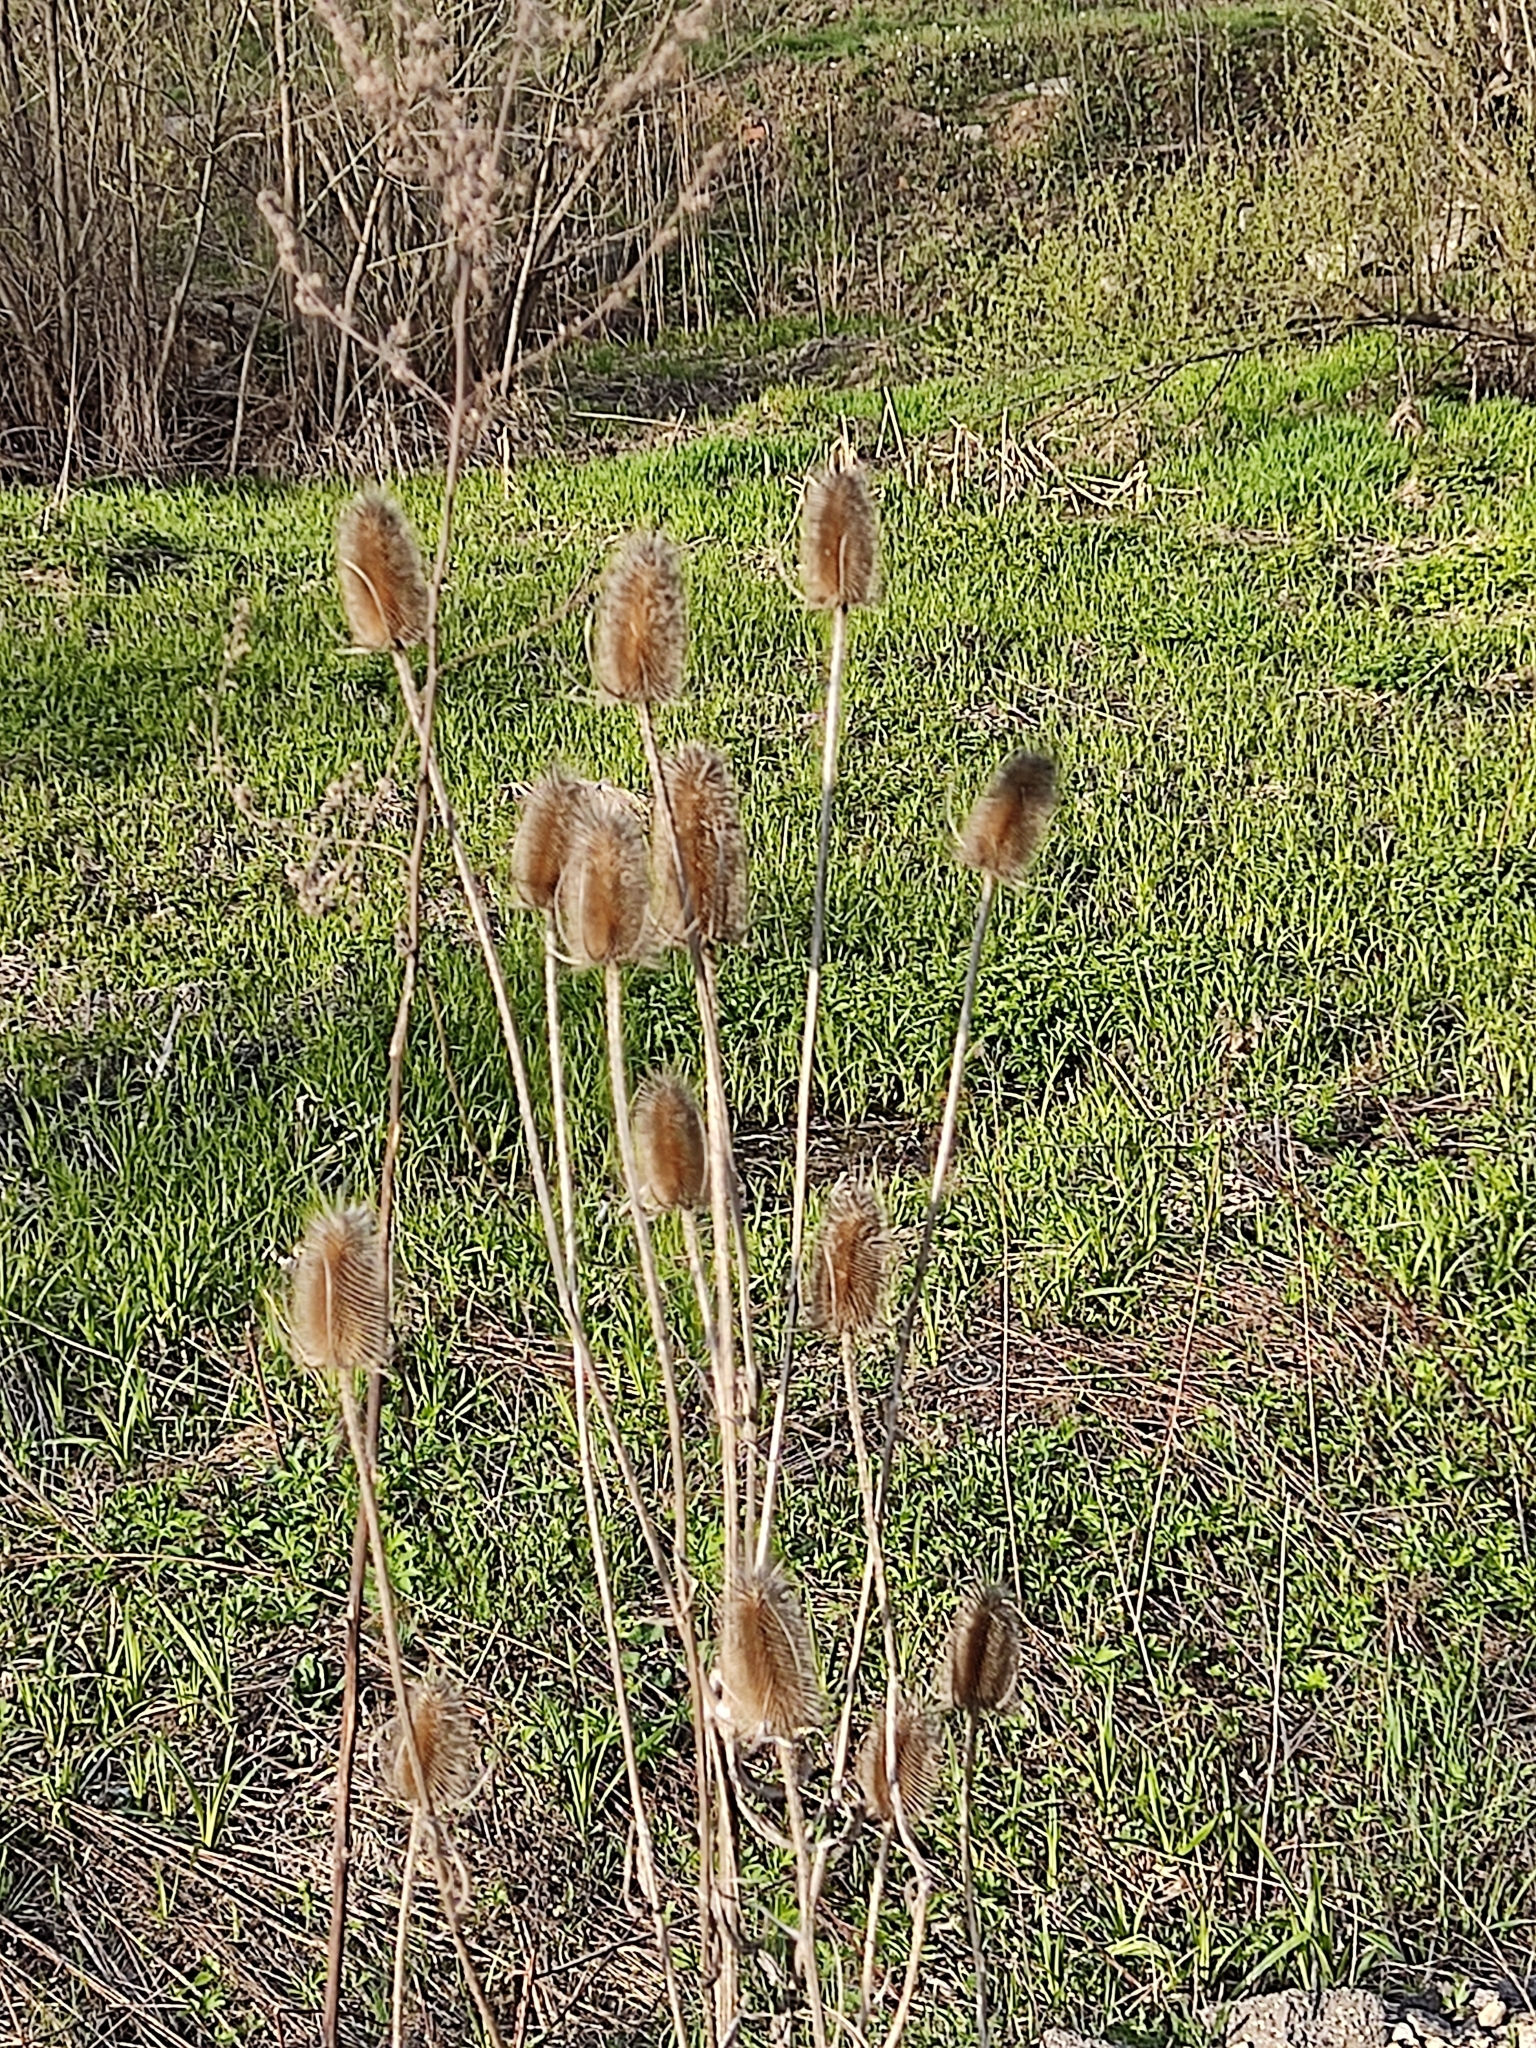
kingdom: Plantae
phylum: Tracheophyta
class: Magnoliopsida
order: Dipsacales
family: Caprifoliaceae
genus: Dipsacus
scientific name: Dipsacus fullonum
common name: Teasel
